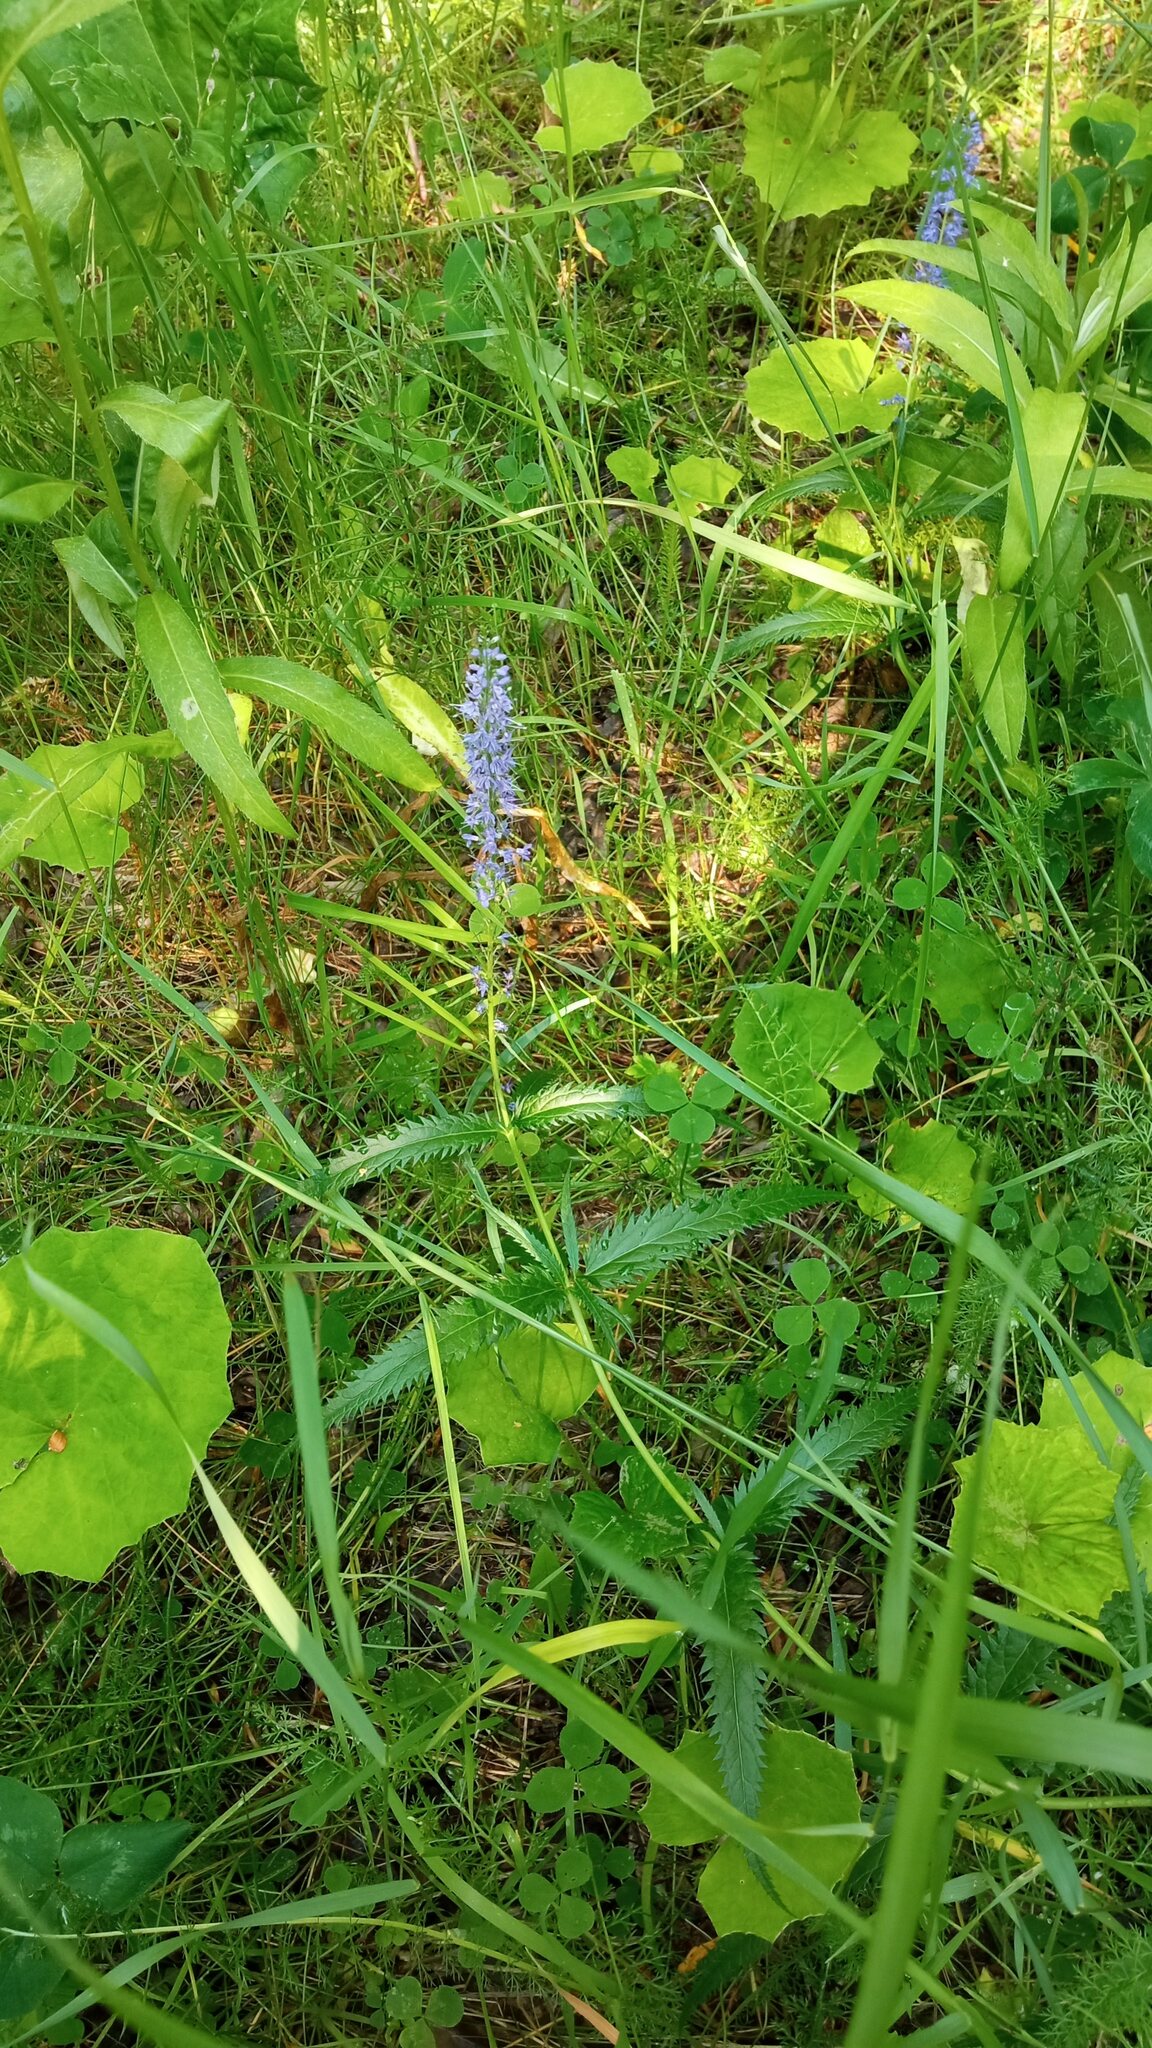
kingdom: Plantae
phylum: Tracheophyta
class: Magnoliopsida
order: Lamiales
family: Plantaginaceae
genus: Veronica
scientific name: Veronica longifolia
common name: Garden speedwell
